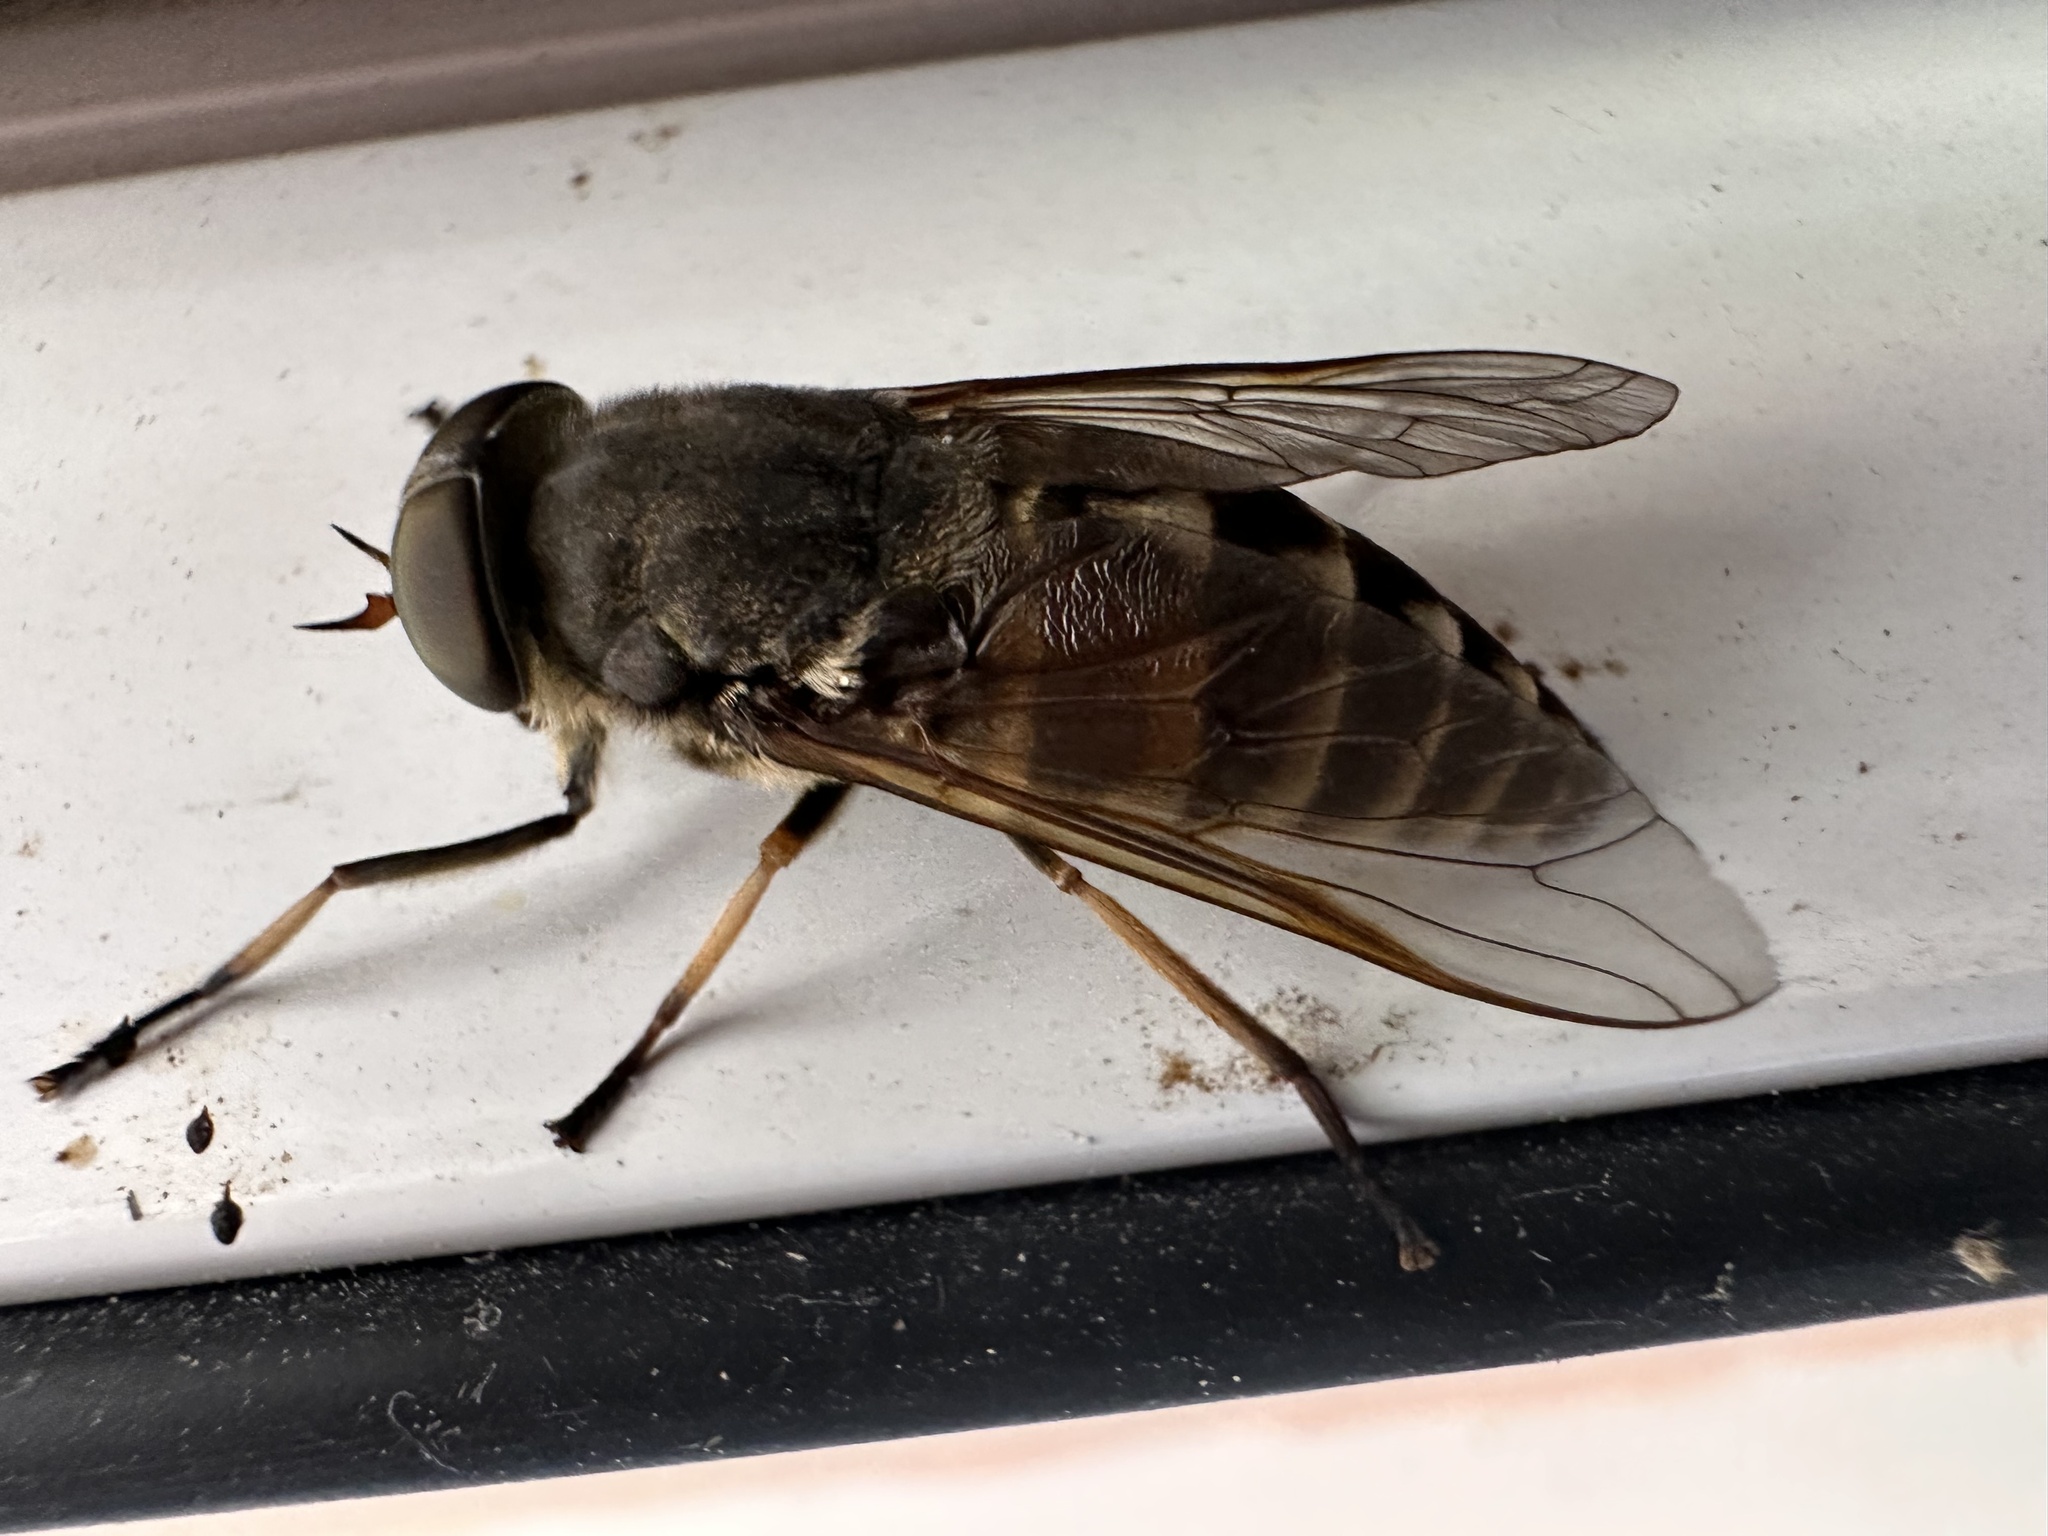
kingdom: Animalia
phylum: Arthropoda
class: Insecta
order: Diptera
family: Tabanidae
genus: Tabanus
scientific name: Tabanus sudeticus
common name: Dark giant horsefly
